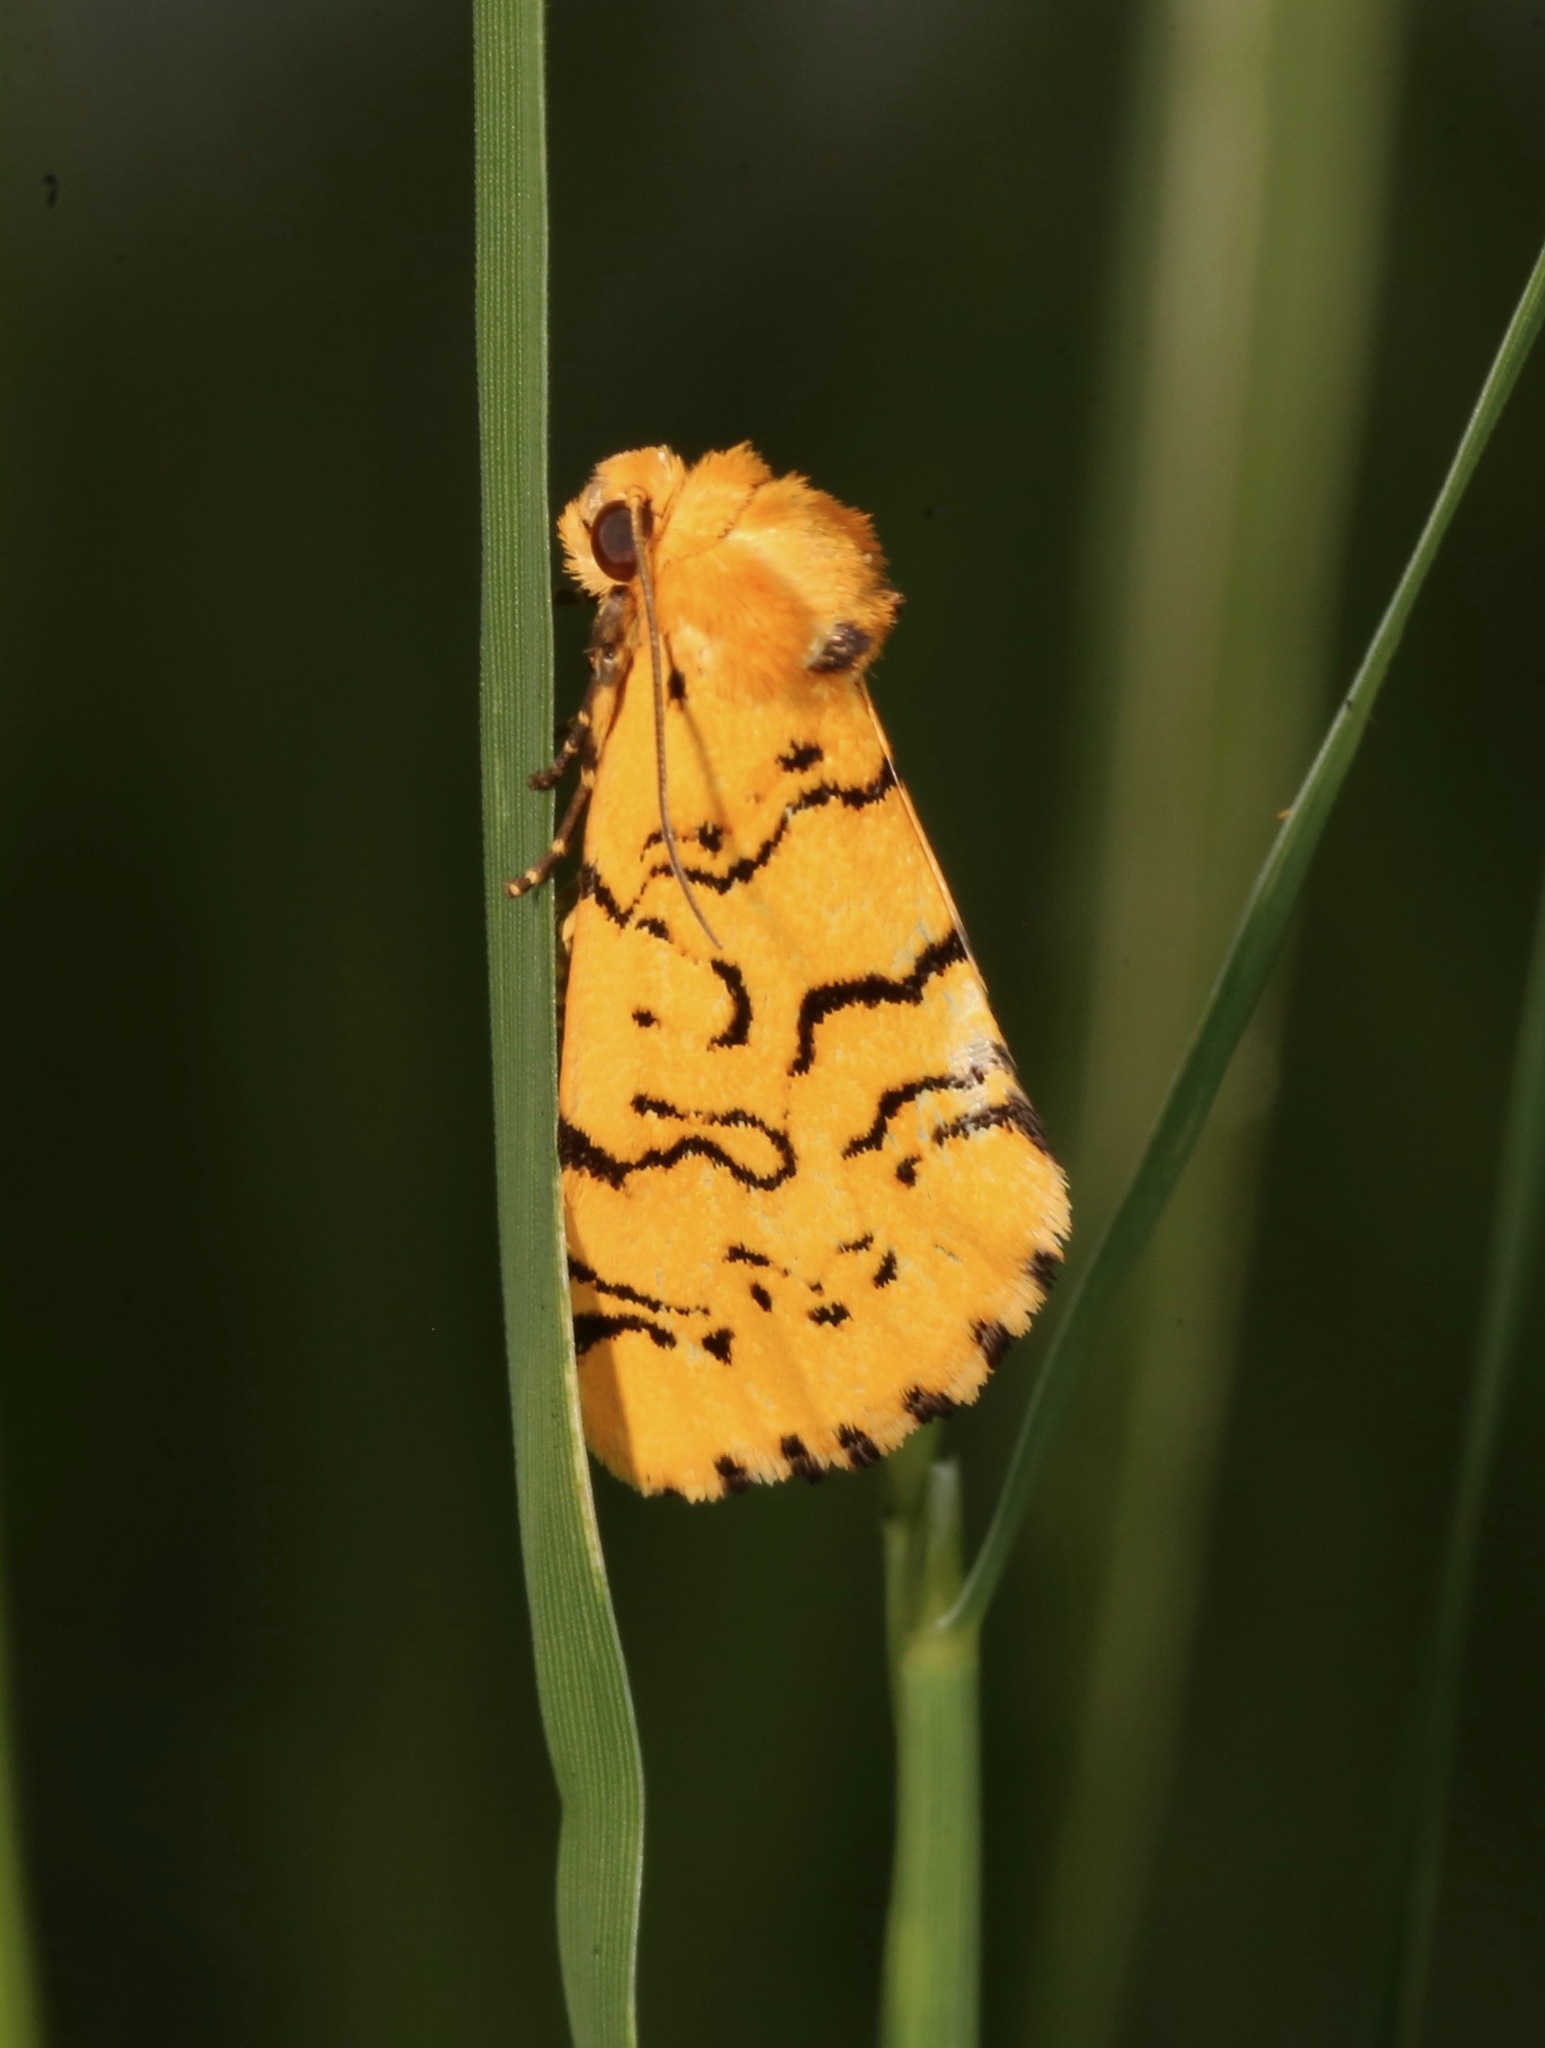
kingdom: Animalia
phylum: Arthropoda
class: Insecta
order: Lepidoptera
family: Noctuidae
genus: Chrysoecia
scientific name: Chrysoecia atrolinea
